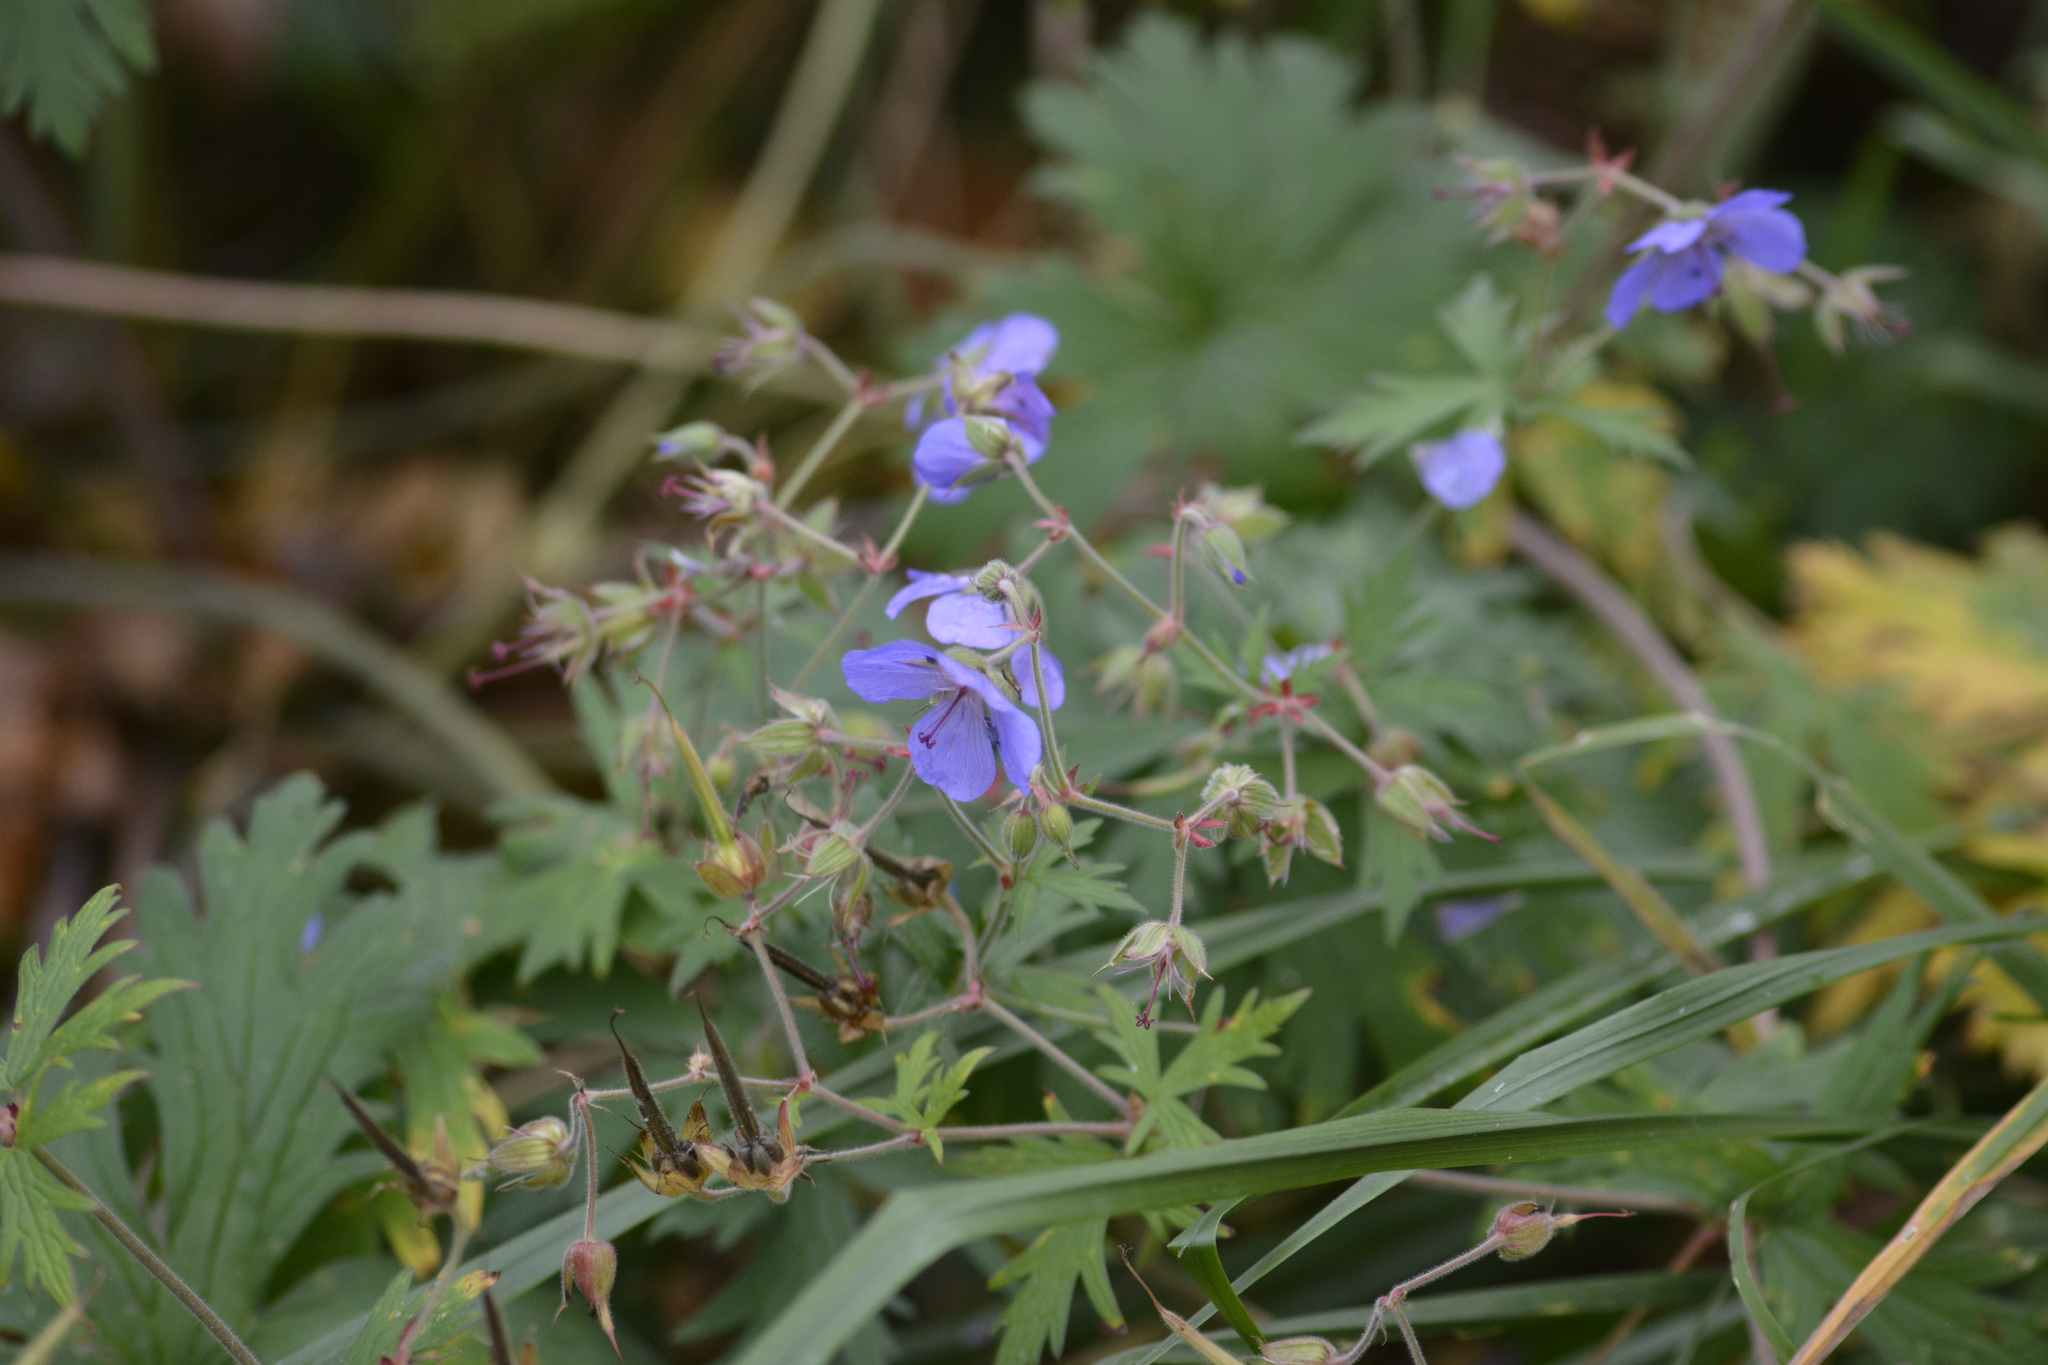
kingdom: Plantae
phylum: Tracheophyta
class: Magnoliopsida
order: Geraniales
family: Geraniaceae
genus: Geranium
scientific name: Geranium pratense
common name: Meadow crane's-bill
